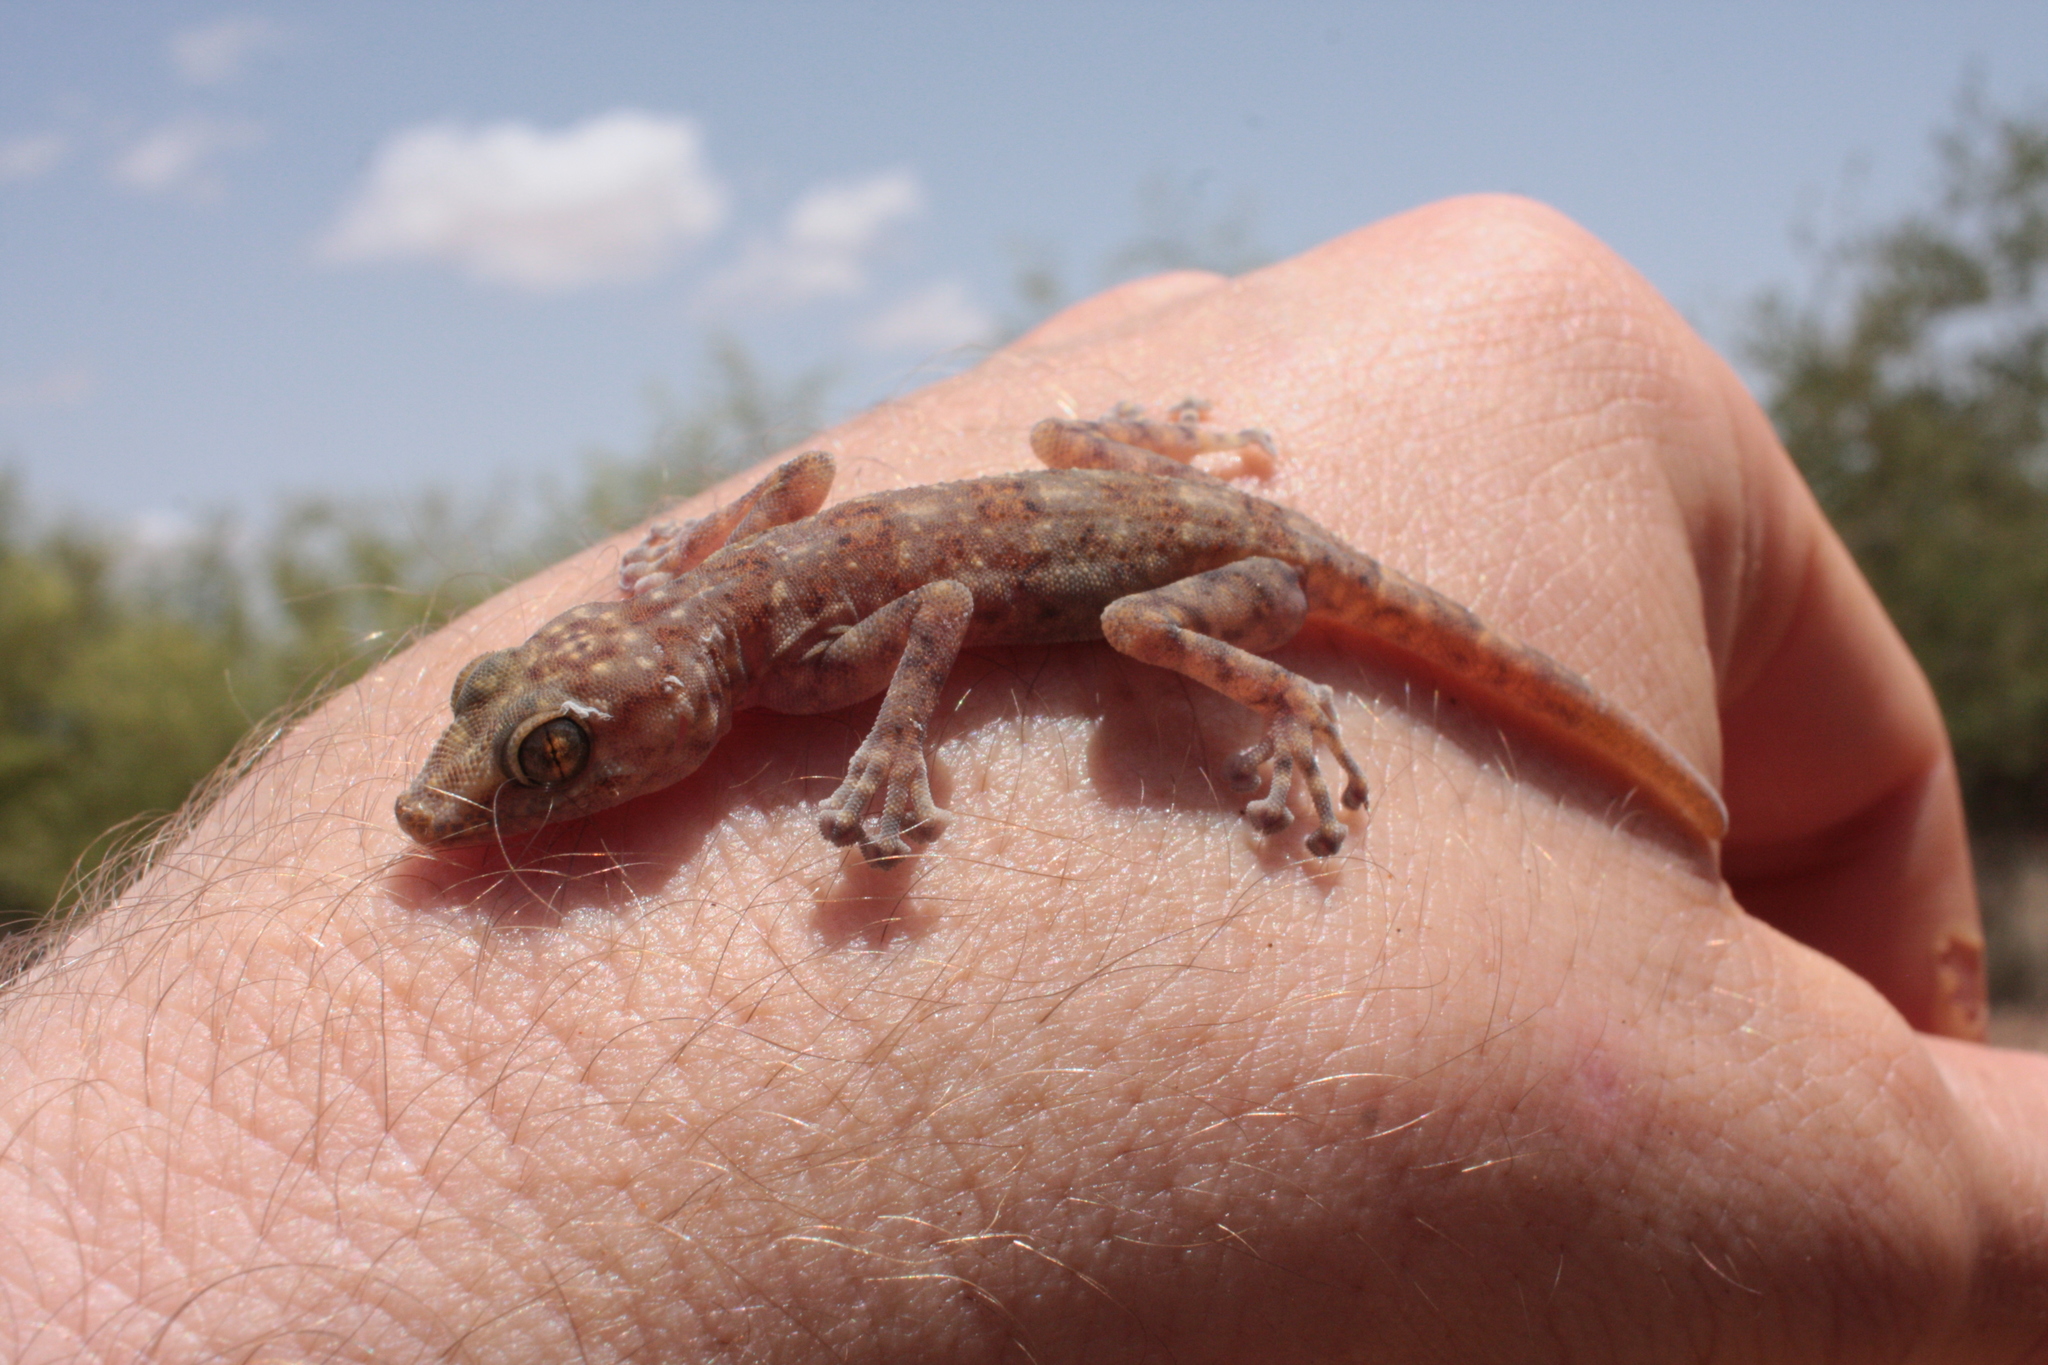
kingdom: Animalia
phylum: Chordata
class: Squamata
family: Phyllodactylidae
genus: Ptyodactylus
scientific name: Ptyodactylus ragazzii
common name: Ragazzi’s fan-footed gecko
